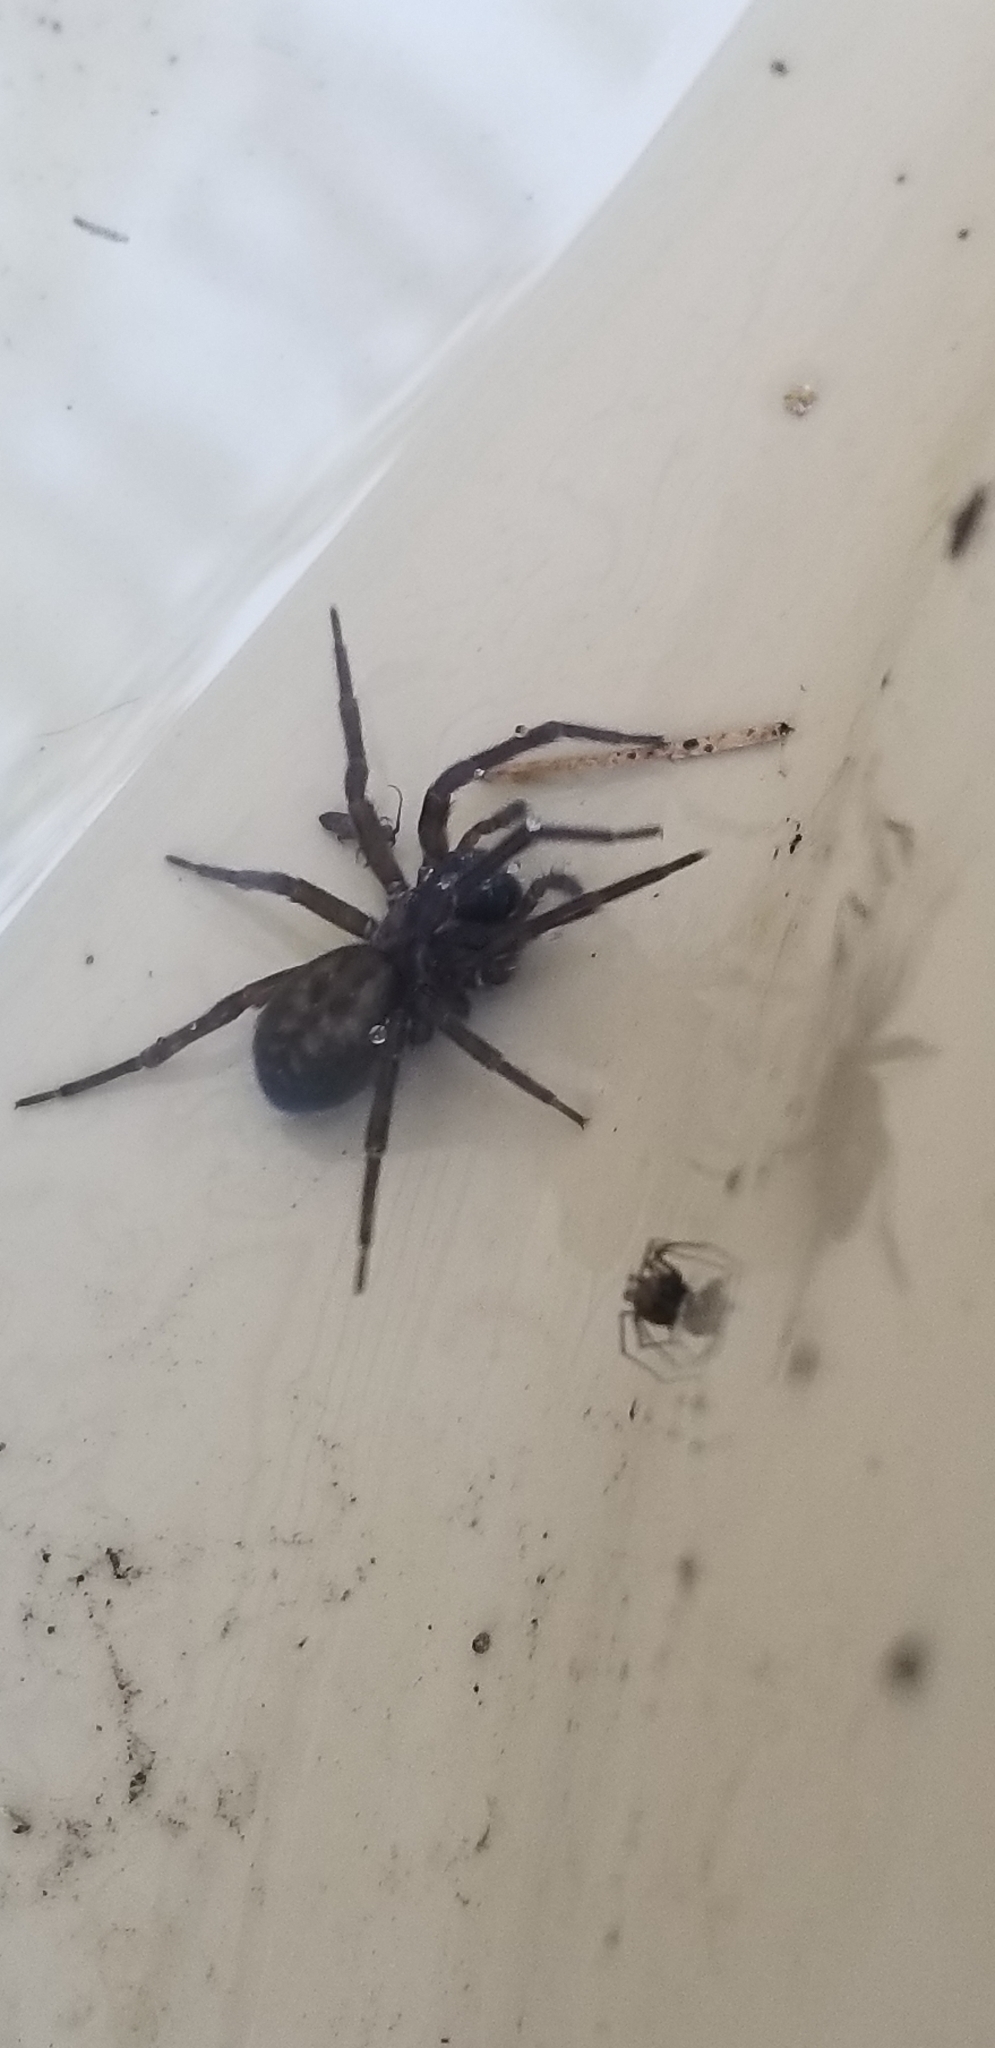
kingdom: Animalia
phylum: Arthropoda
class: Arachnida
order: Araneae
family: Amaurobiidae
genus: Amaurobius
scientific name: Amaurobius ferox
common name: Black laceweaver
